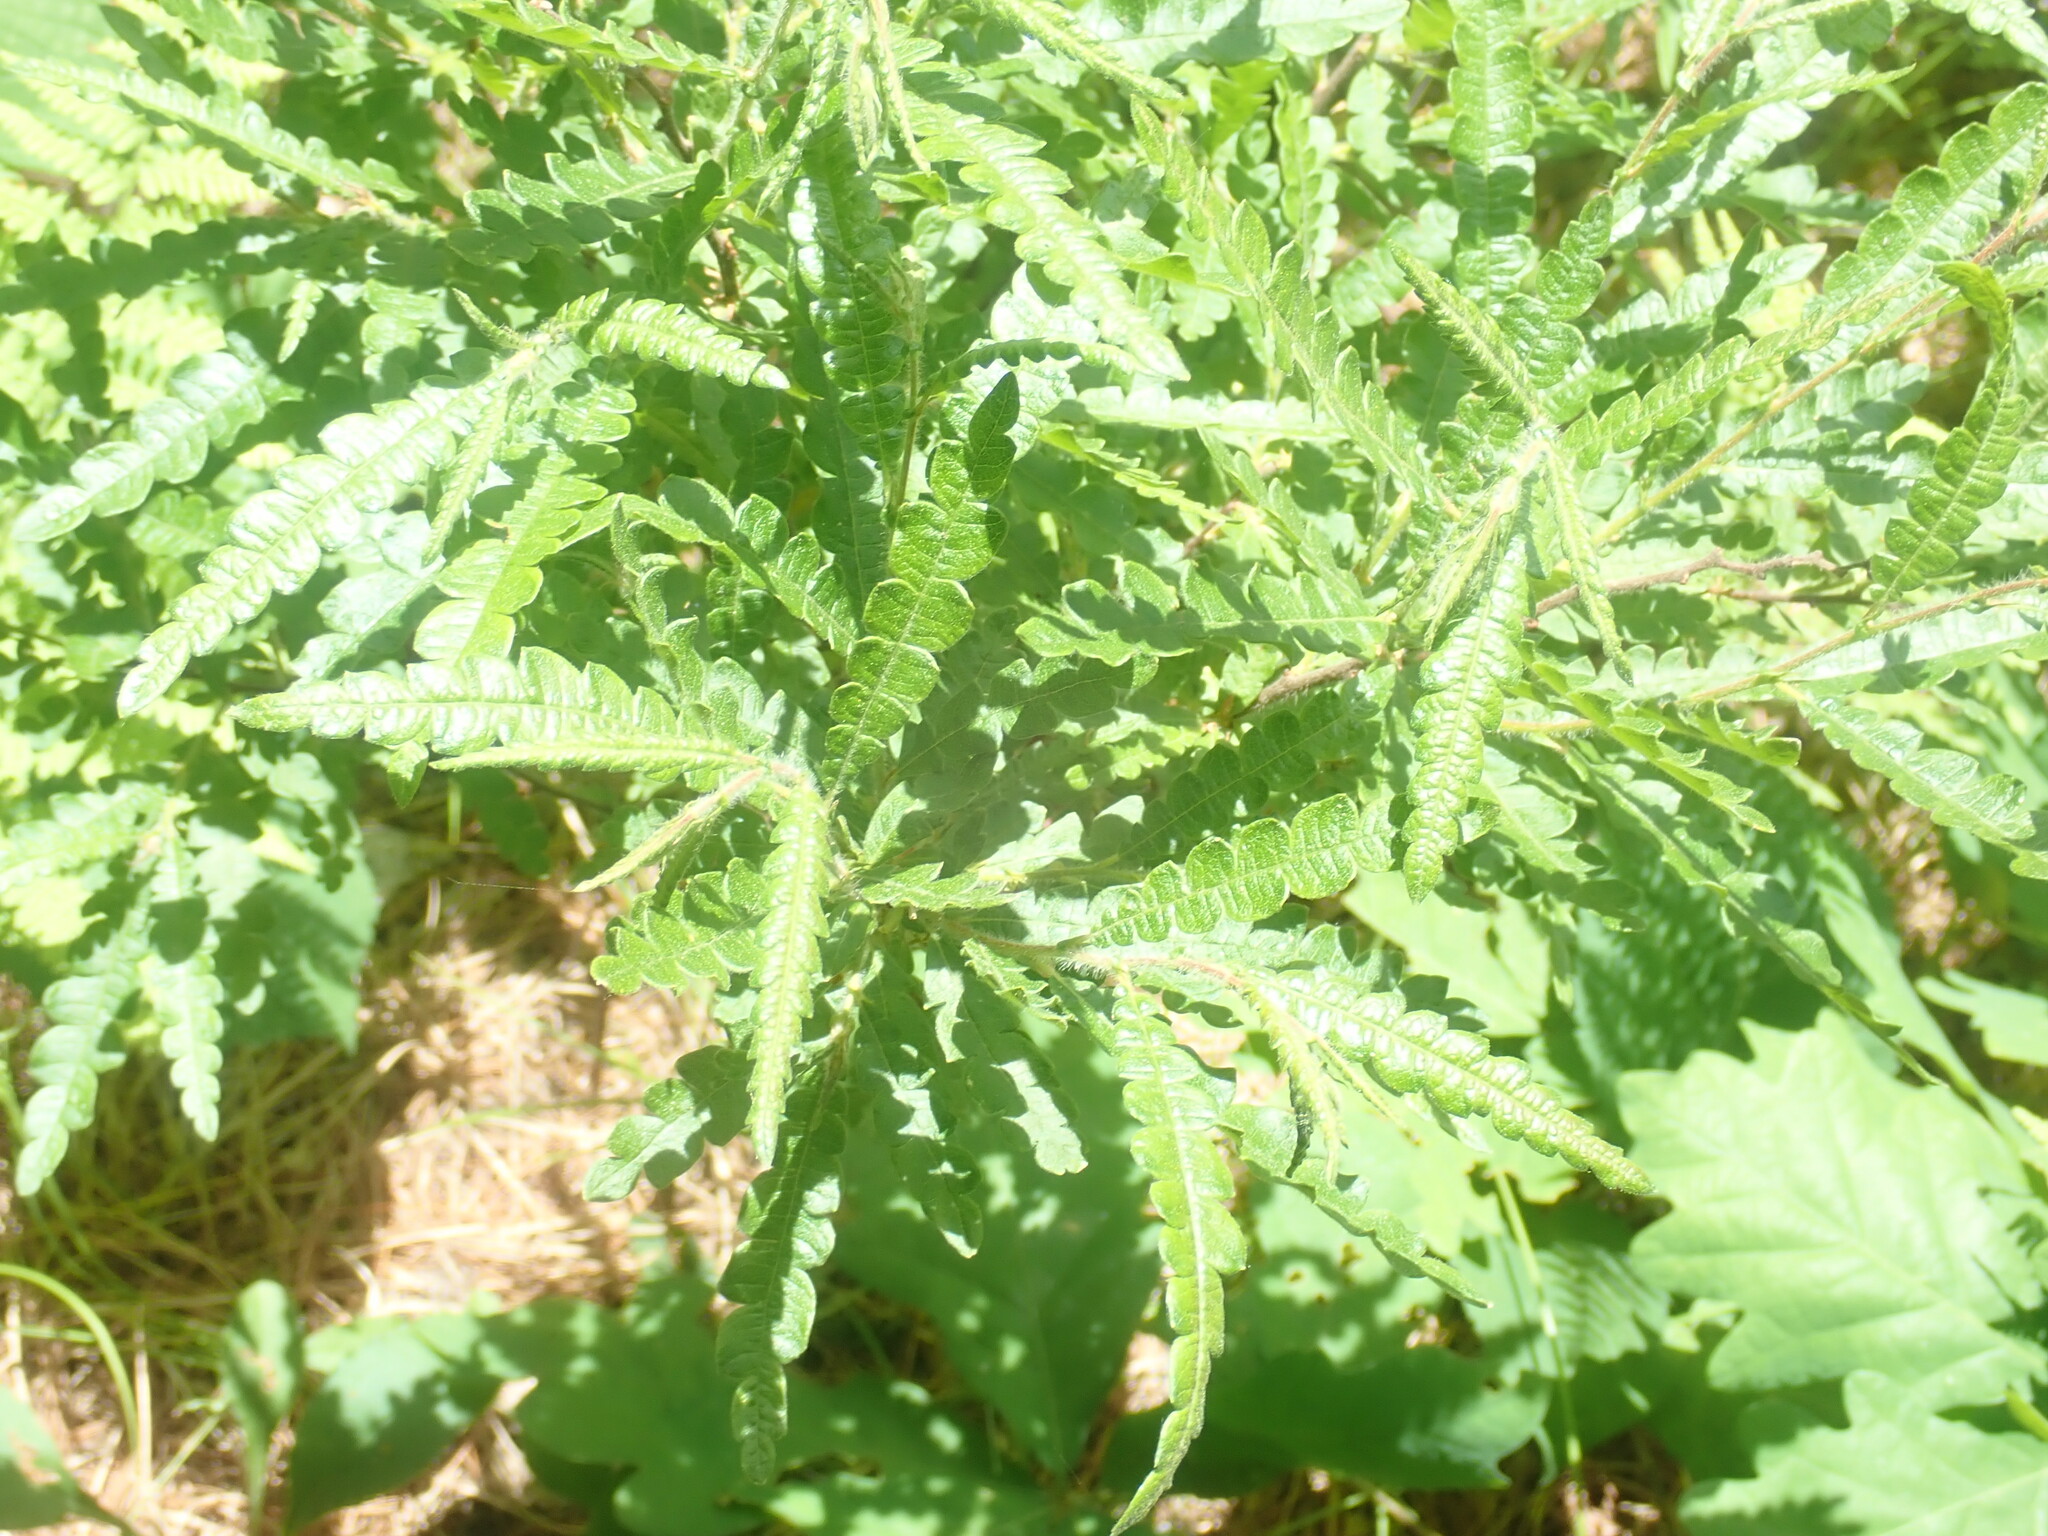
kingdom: Plantae
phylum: Tracheophyta
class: Magnoliopsida
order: Fagales
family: Myricaceae
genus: Comptonia
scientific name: Comptonia peregrina
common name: Sweet-fern
